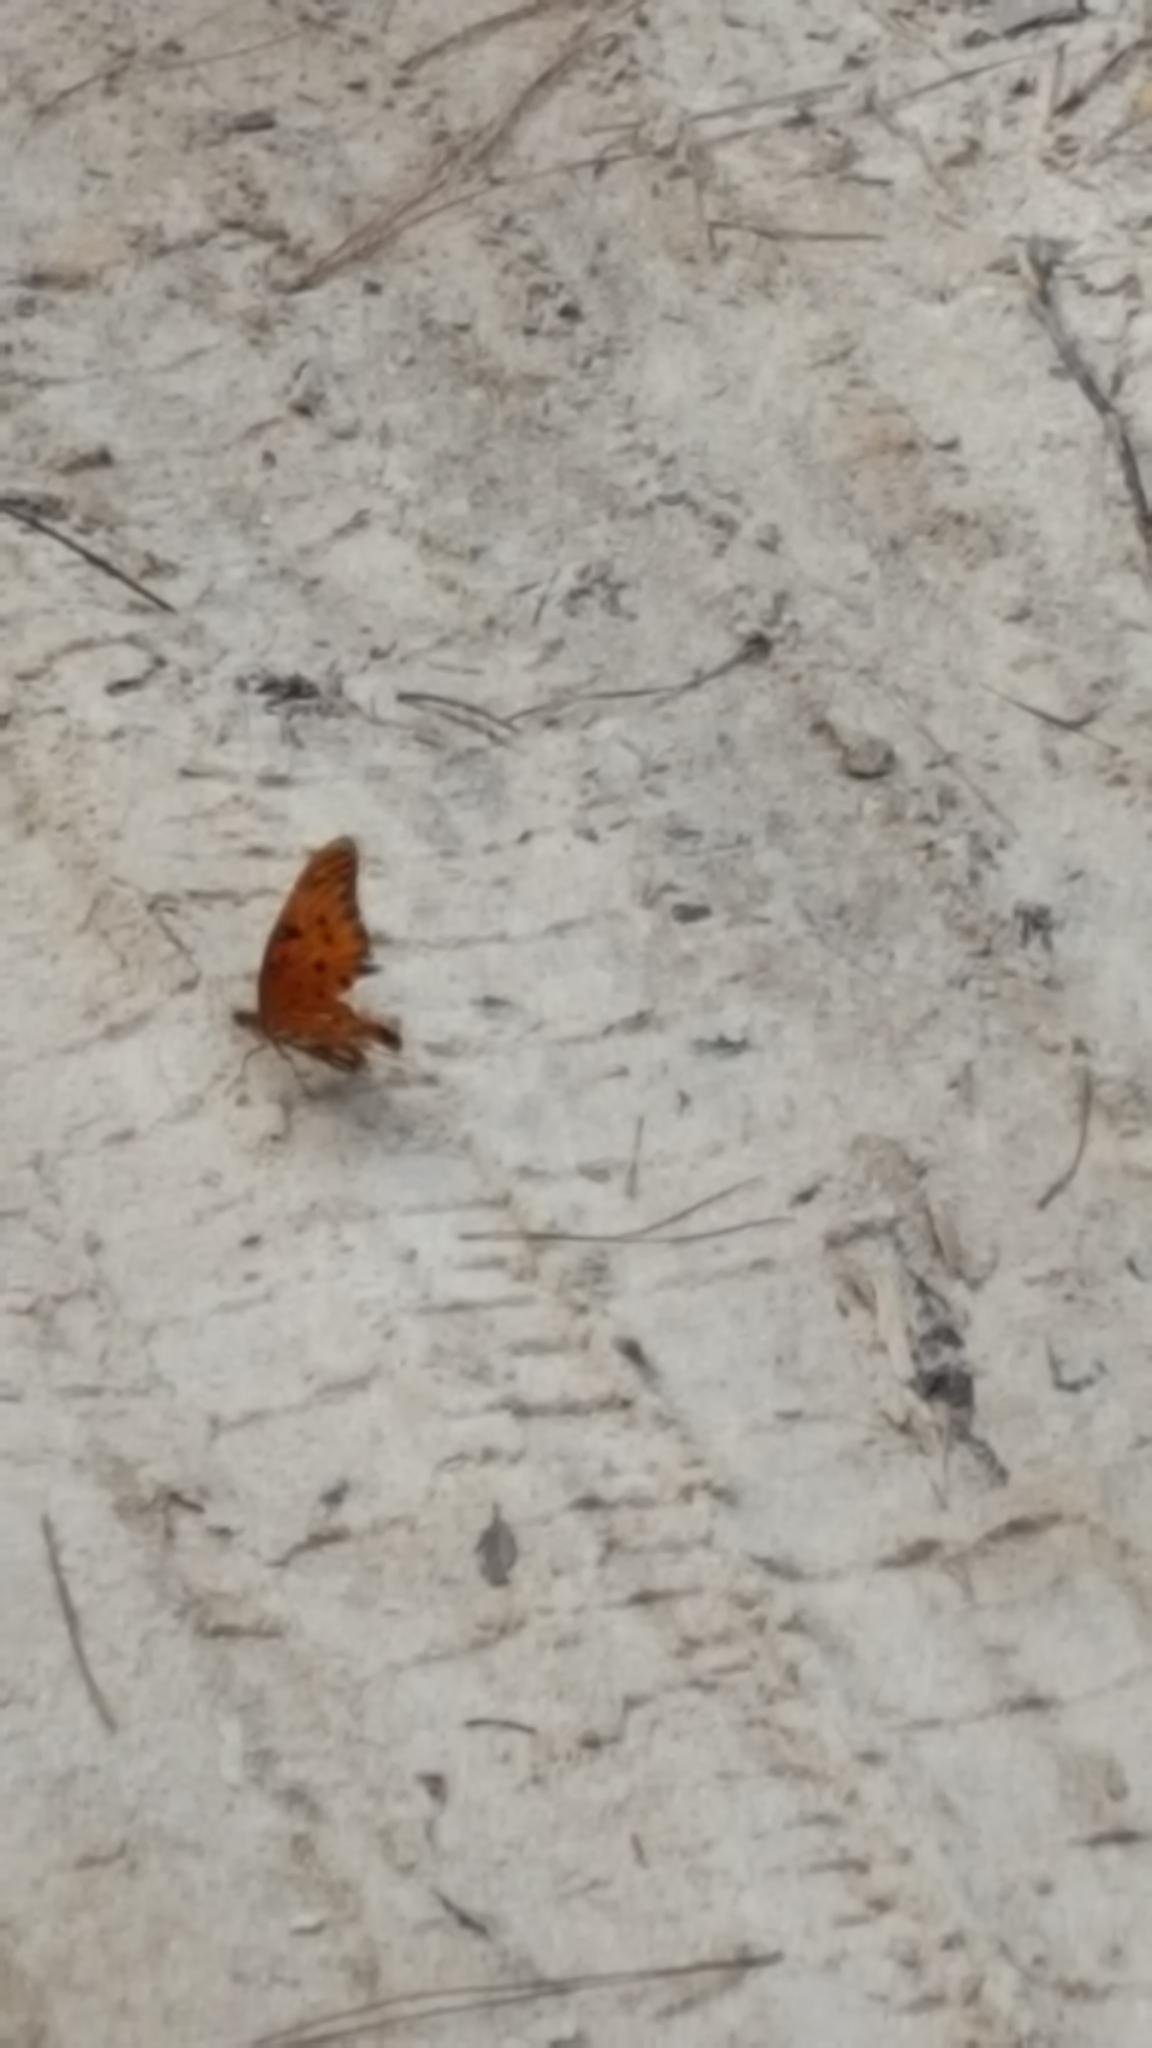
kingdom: Animalia
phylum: Arthropoda
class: Insecta
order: Lepidoptera
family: Nymphalidae
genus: Dione
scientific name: Dione vanillae
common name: Gulf fritillary
